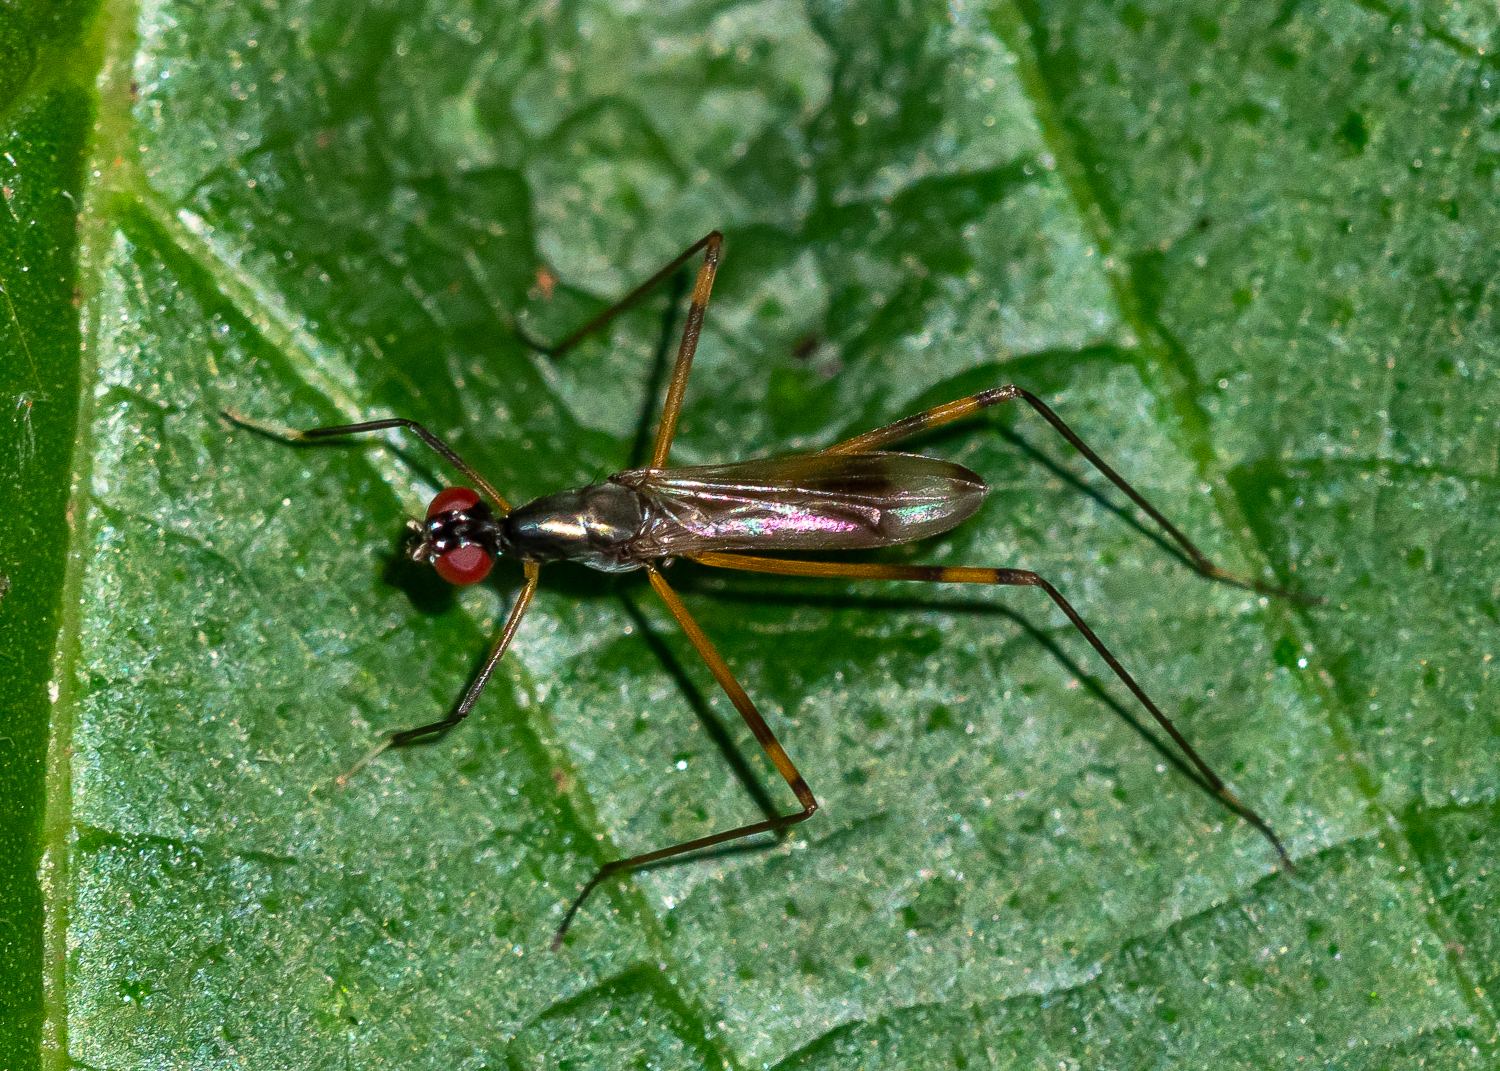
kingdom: Animalia
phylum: Arthropoda
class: Insecta
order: Diptera
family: Micropezidae
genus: Rainieria
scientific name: Rainieria antennaepes
